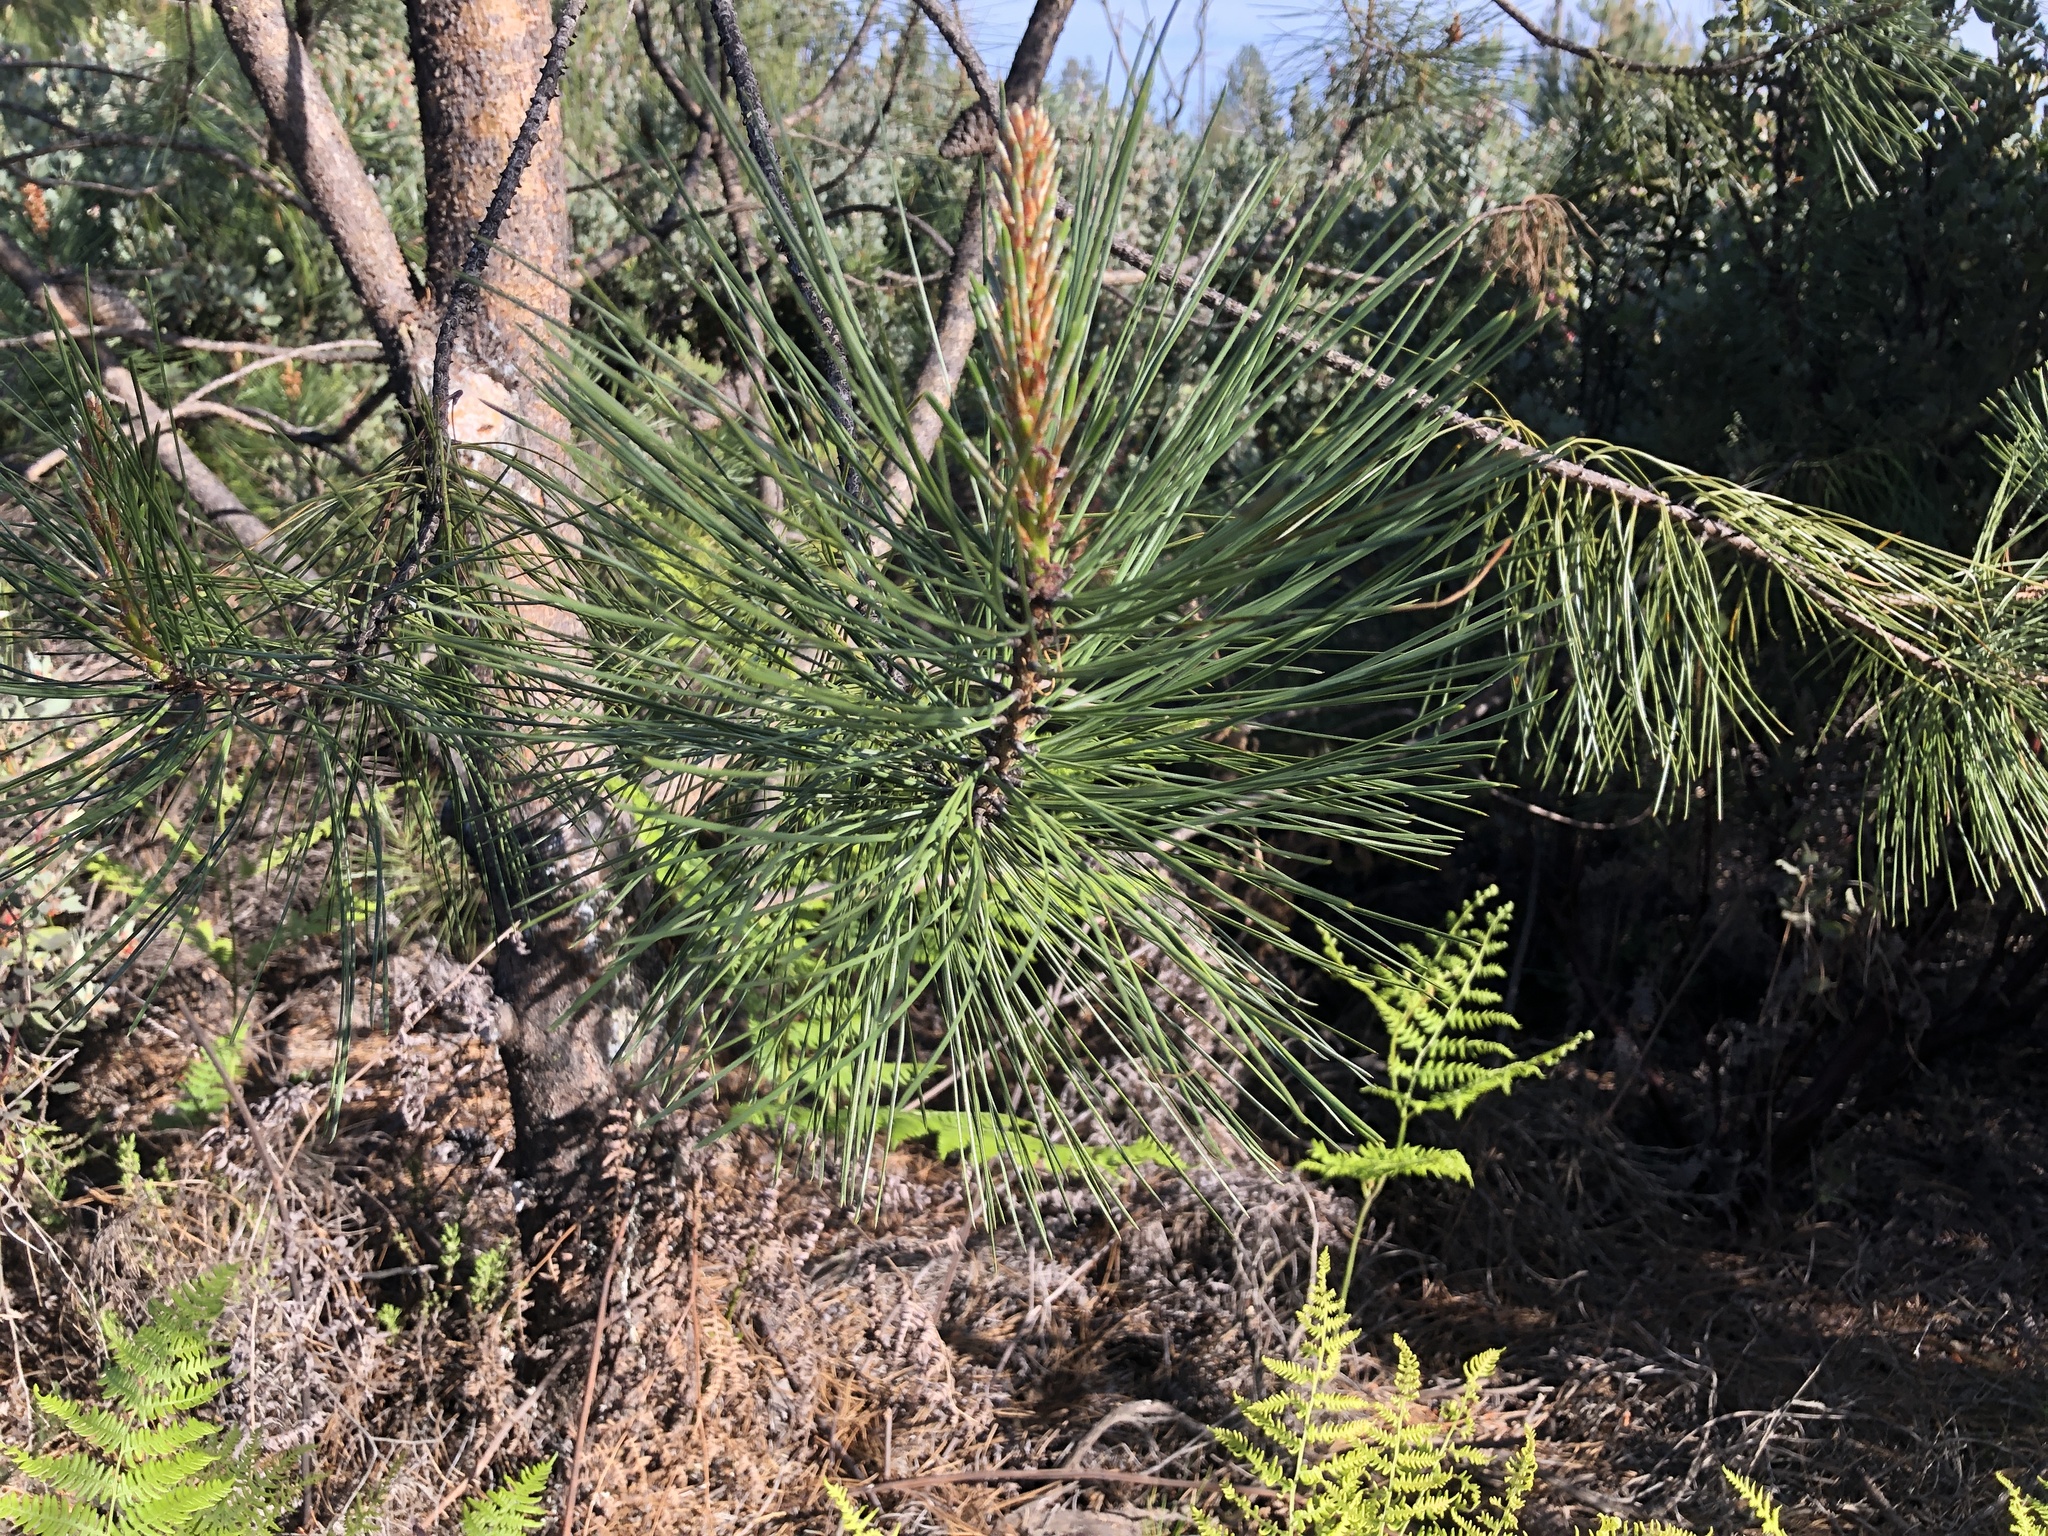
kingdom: Plantae
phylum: Tracheophyta
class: Pinopsida
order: Pinales
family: Pinaceae
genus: Pinus
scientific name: Pinus attenuata
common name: Knobcone pine
